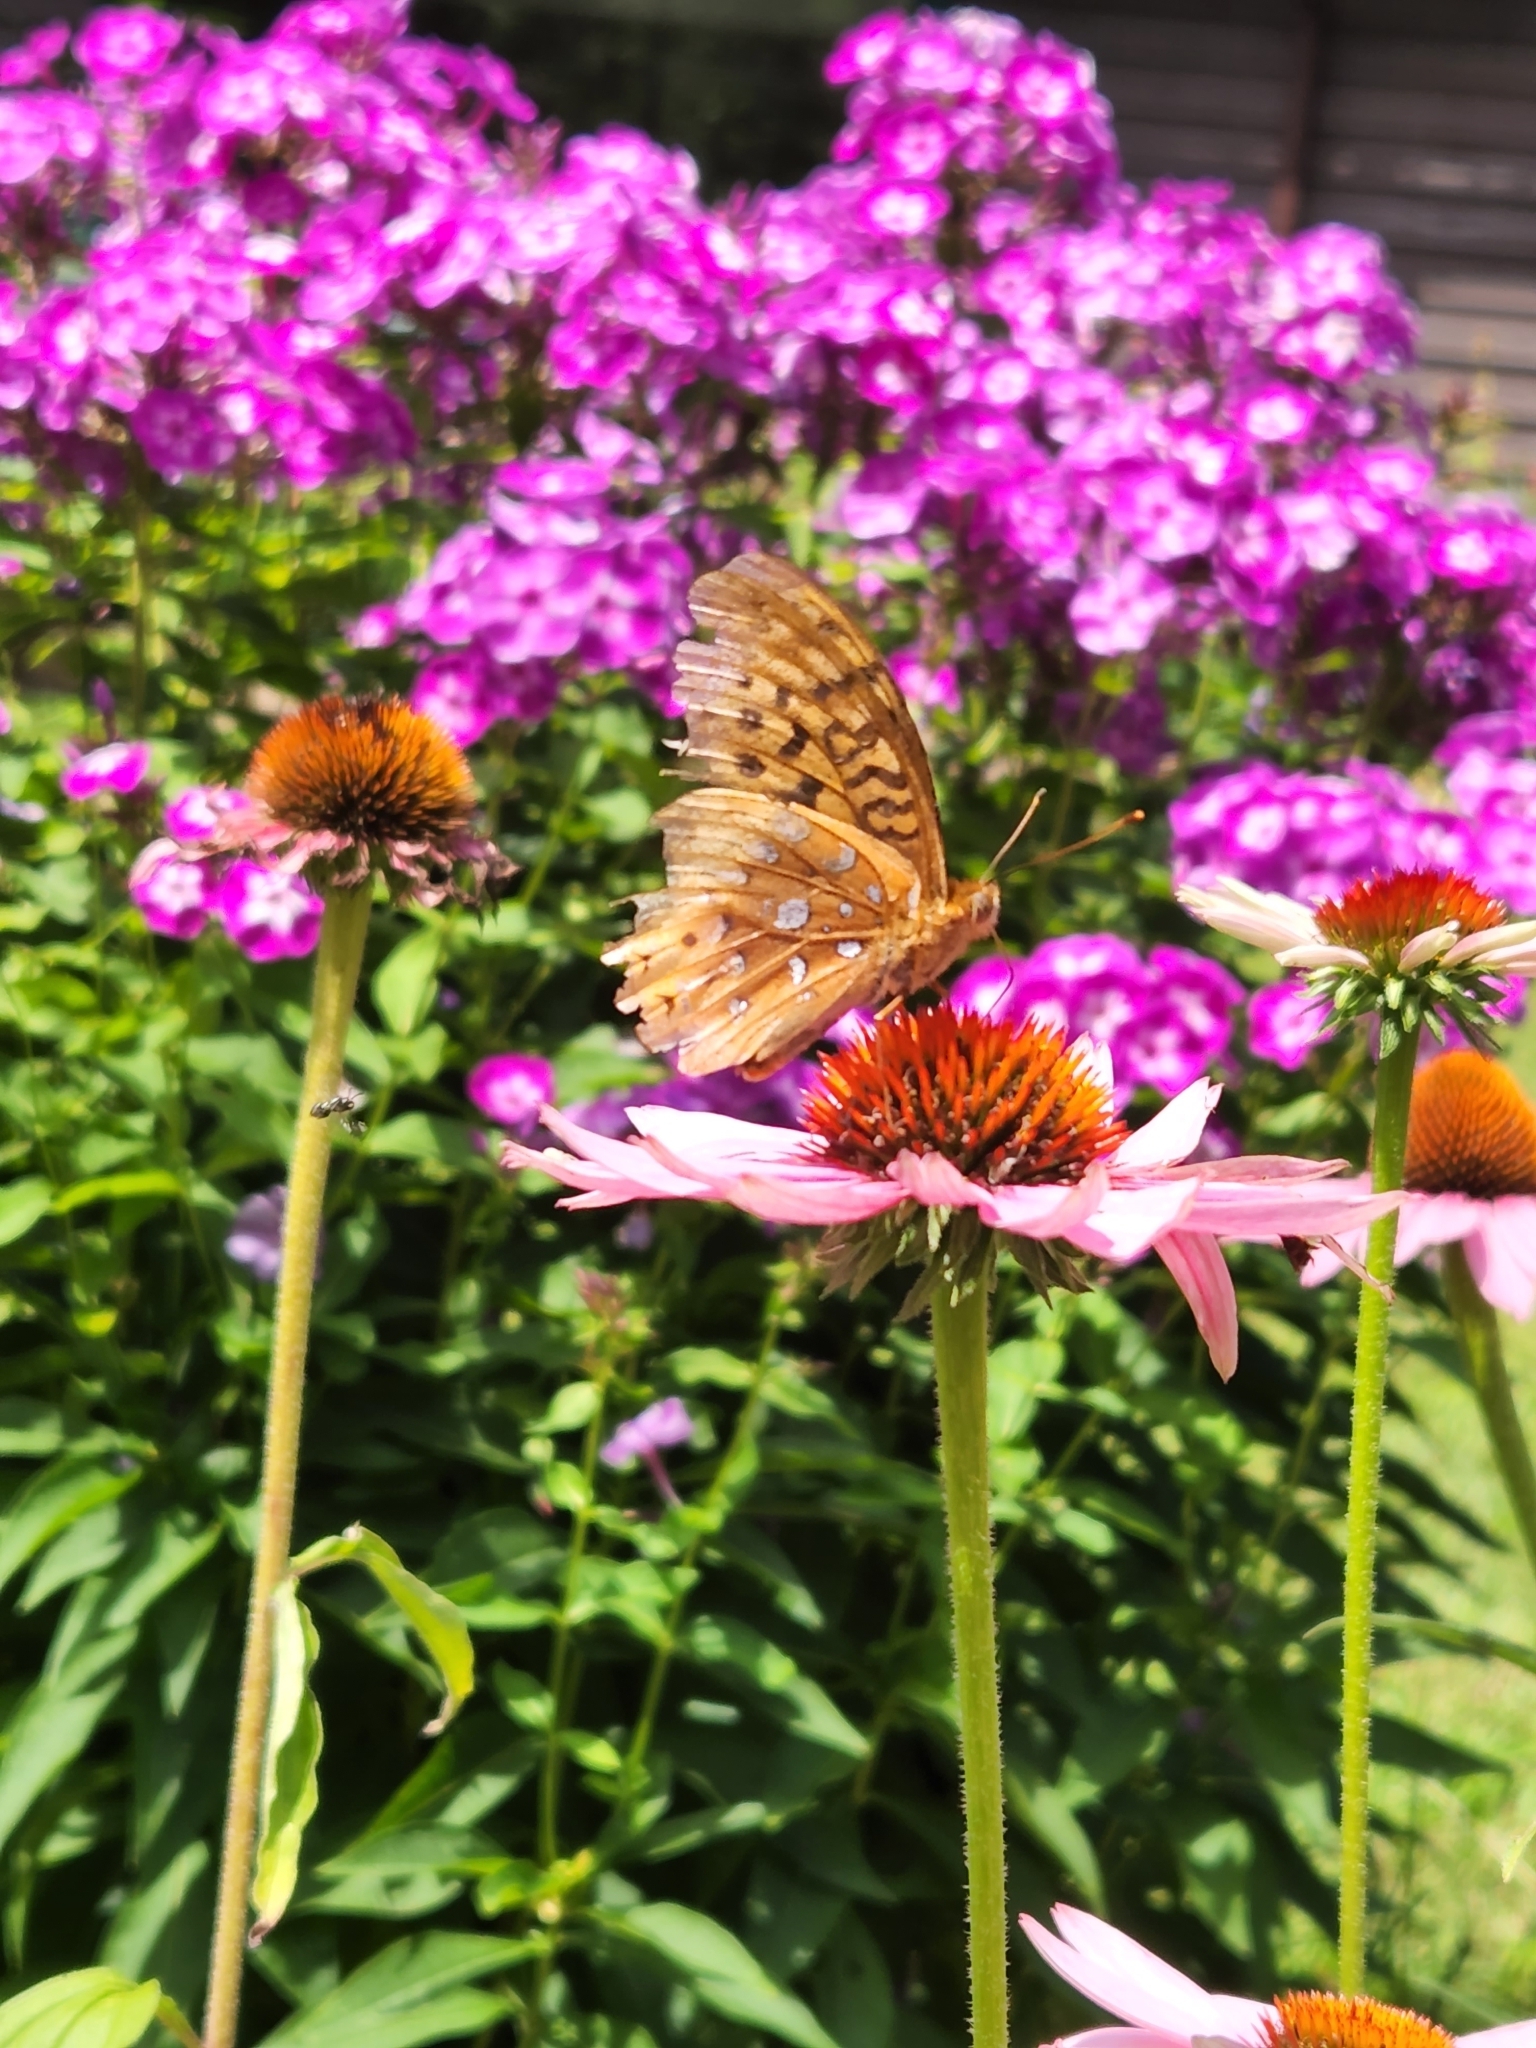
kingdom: Animalia
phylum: Arthropoda
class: Insecta
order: Lepidoptera
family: Nymphalidae
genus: Speyeria
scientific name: Speyeria cybele
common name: Great spangled fritillary
